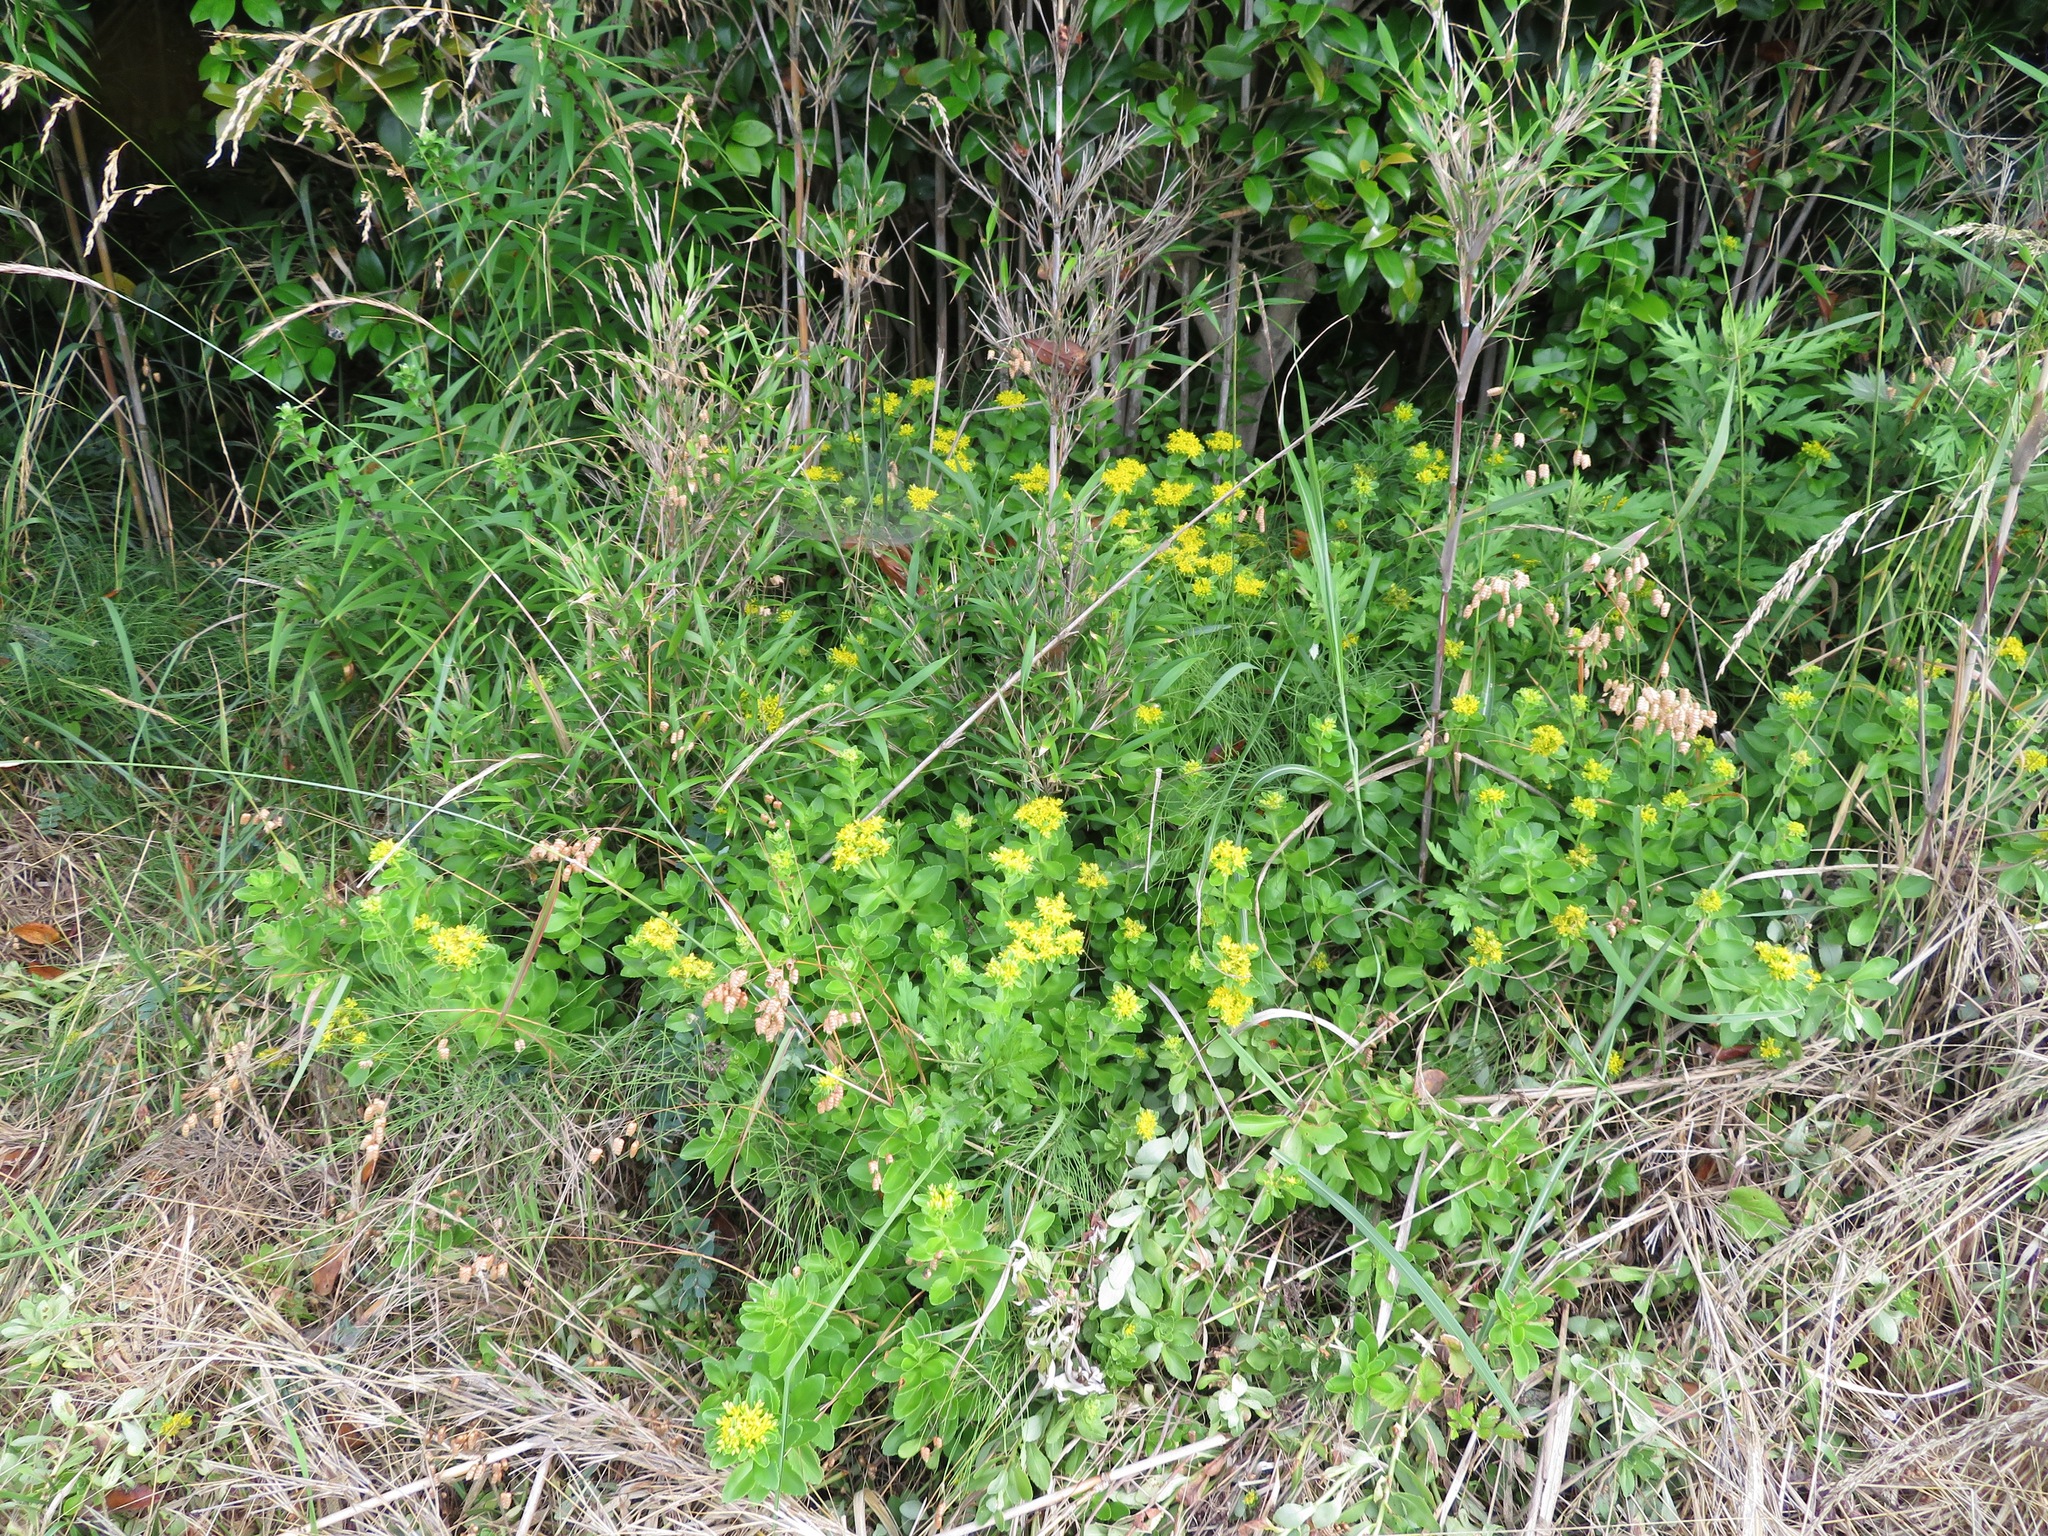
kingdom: Plantae
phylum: Tracheophyta
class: Magnoliopsida
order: Saxifragales
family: Crassulaceae
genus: Phedimus
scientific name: Phedimus aizoon
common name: Orpin aizoon
